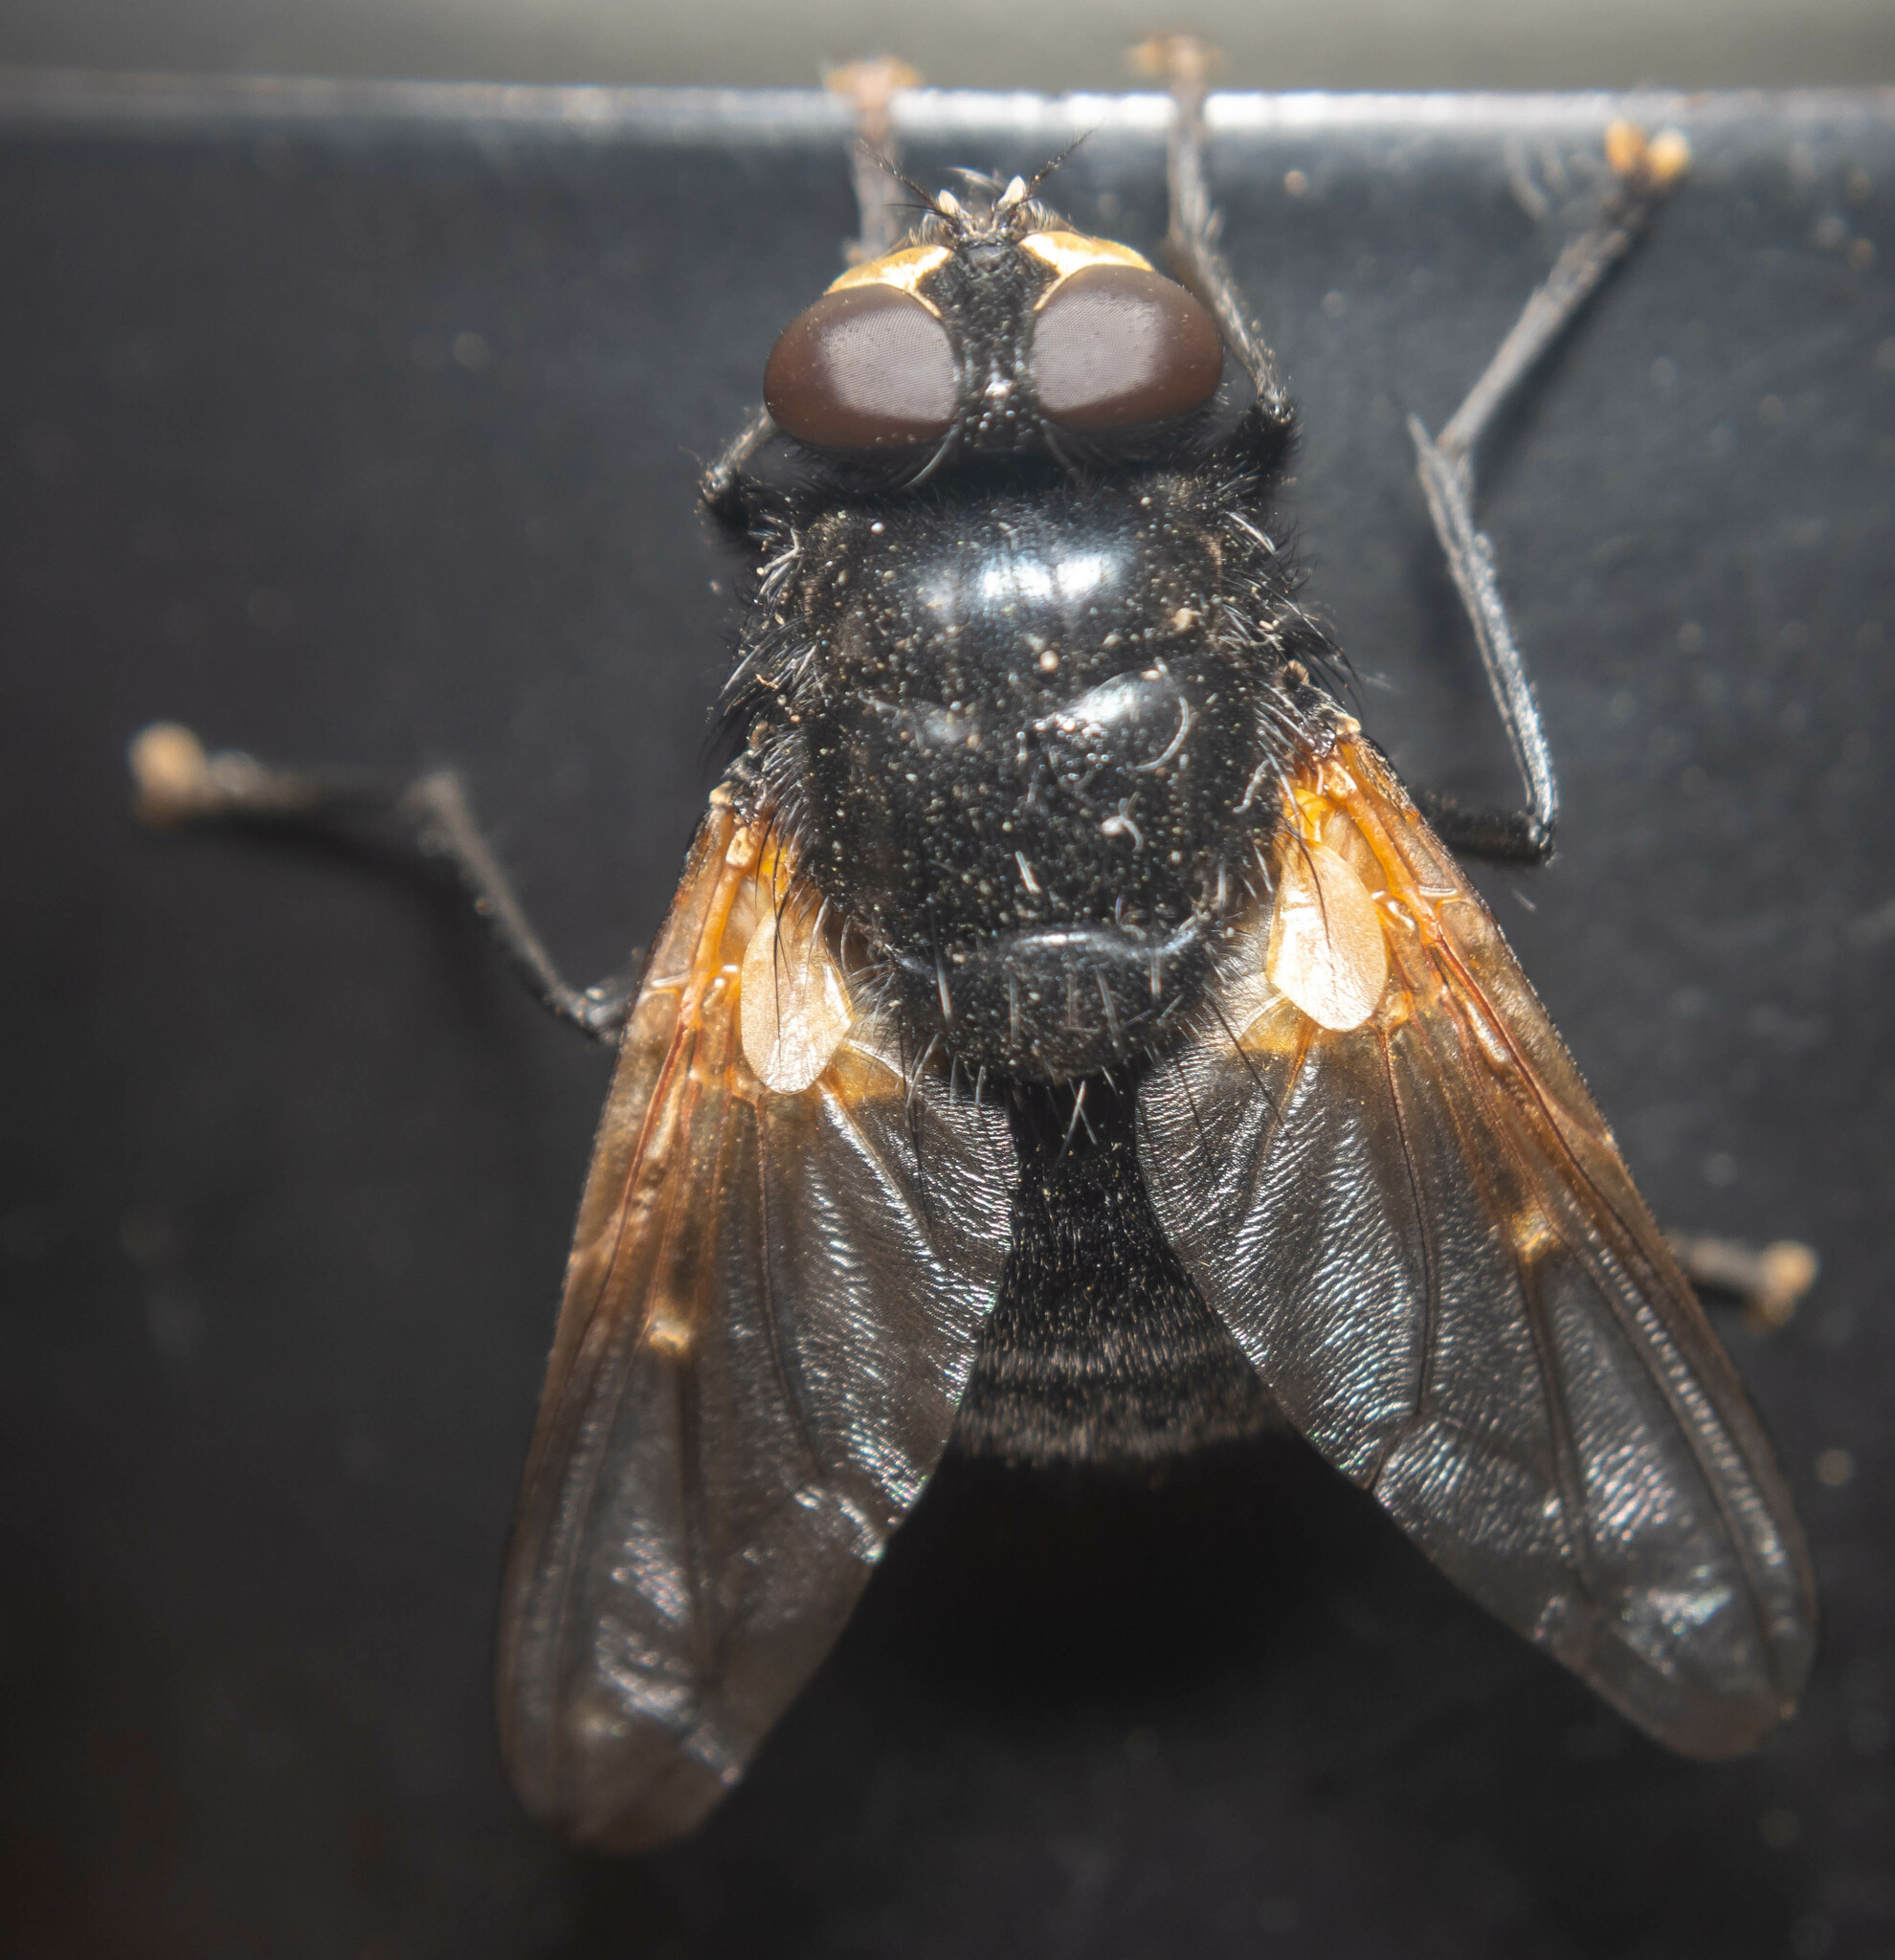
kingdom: Animalia
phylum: Arthropoda
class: Insecta
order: Diptera
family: Muscidae
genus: Mesembrina
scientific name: Mesembrina meridiana
